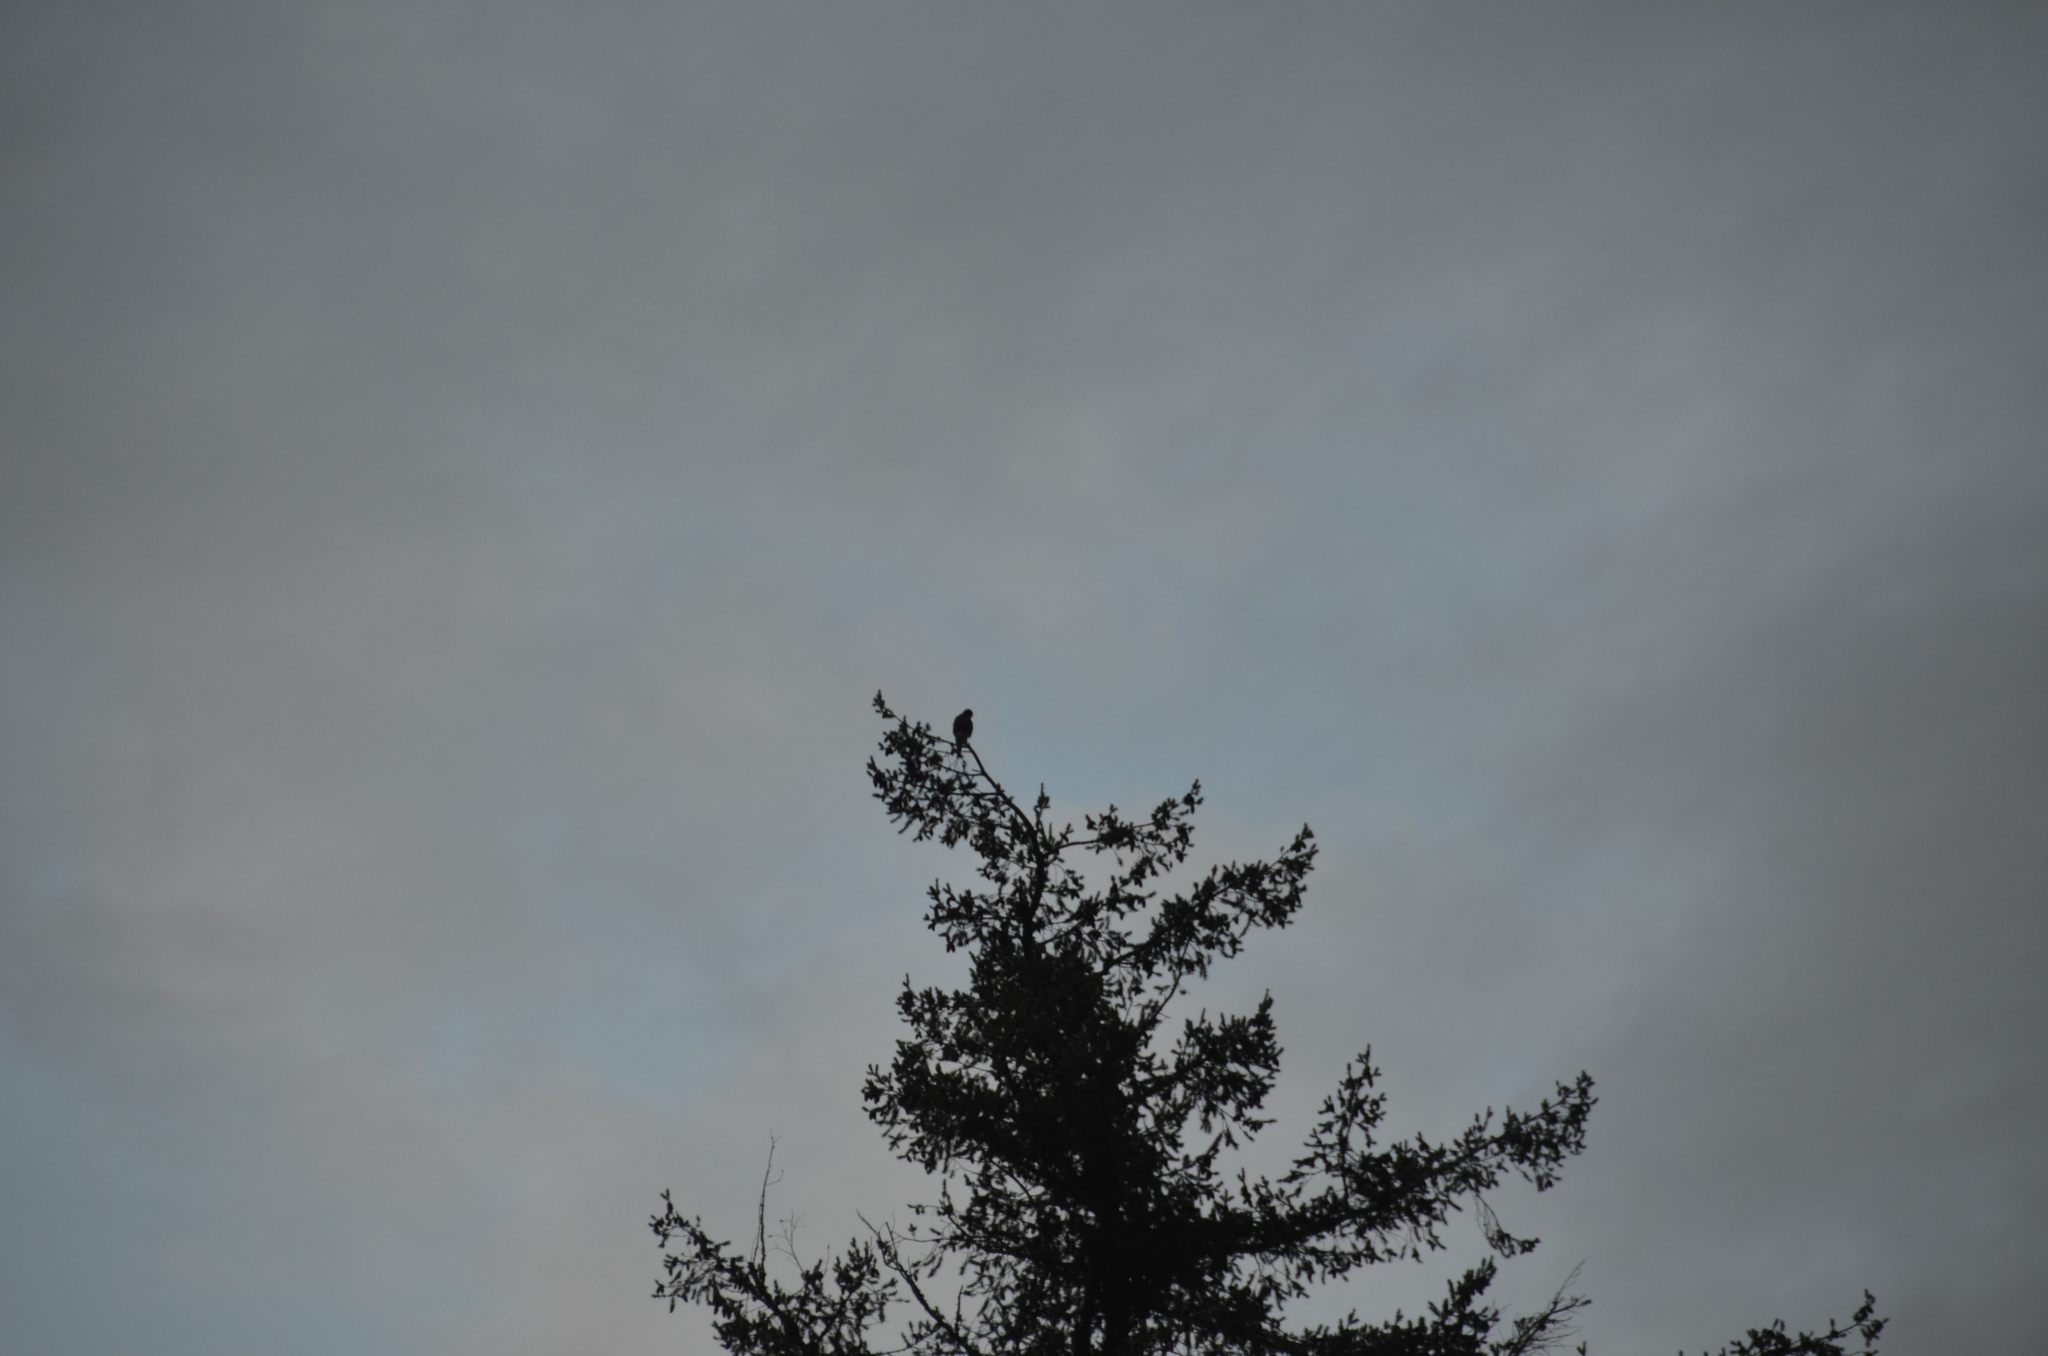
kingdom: Animalia
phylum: Chordata
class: Aves
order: Falconiformes
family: Falconidae
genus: Falco
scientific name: Falco columbarius
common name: Merlin
